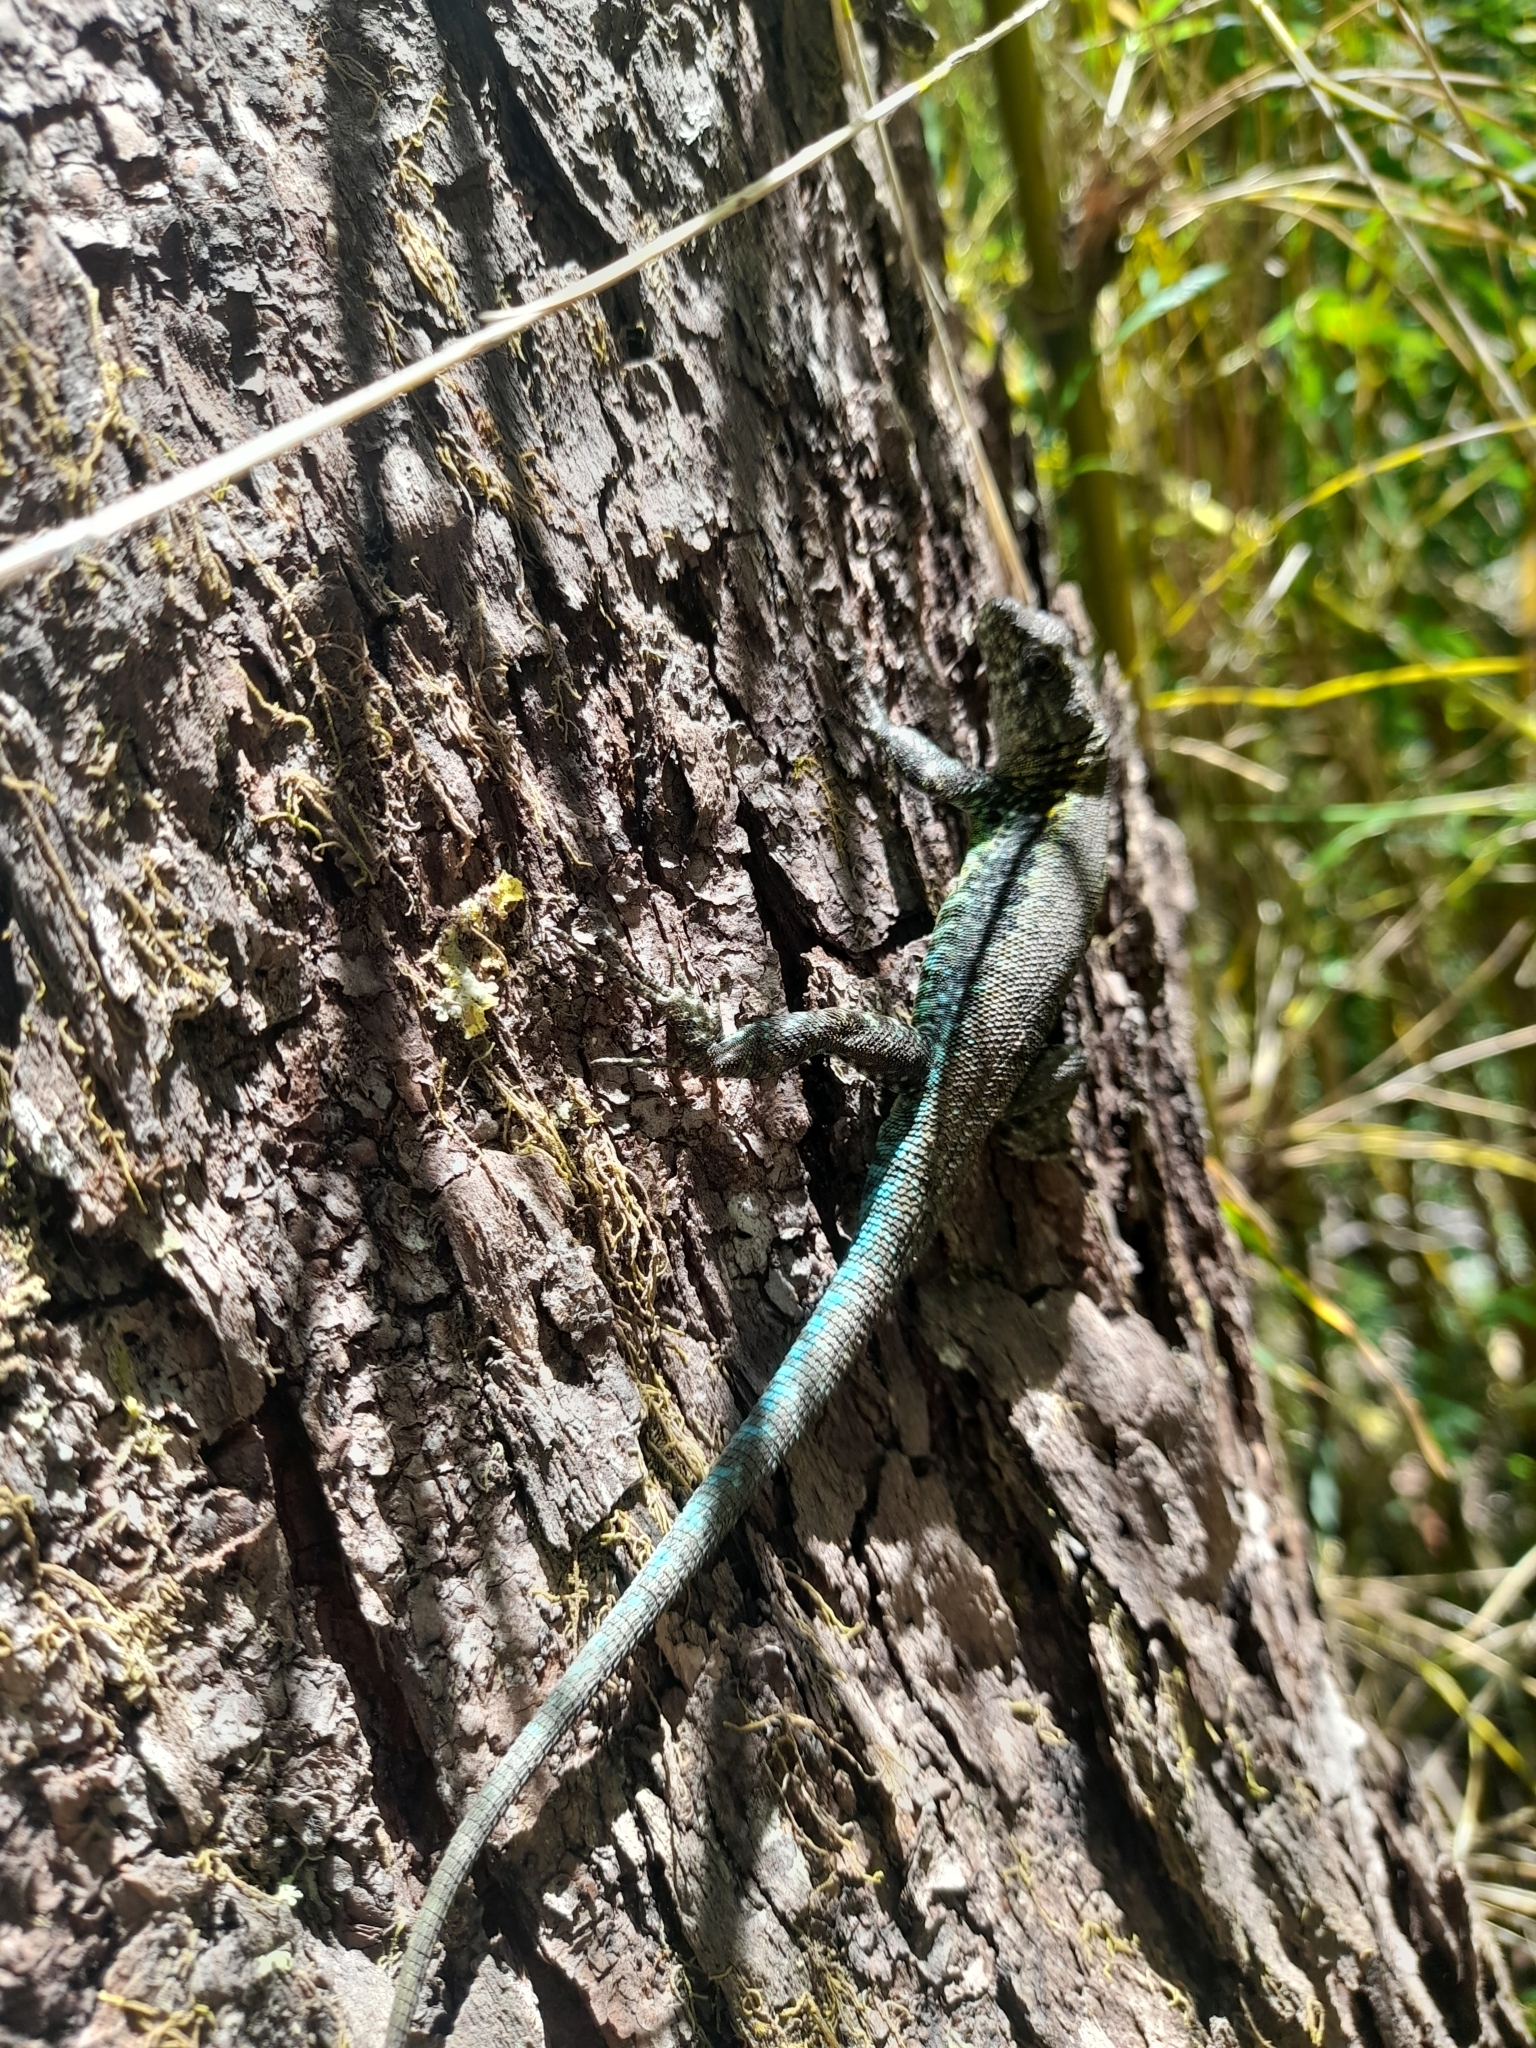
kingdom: Animalia
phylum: Chordata
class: Squamata
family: Liolaemidae
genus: Liolaemus
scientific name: Liolaemus pictus
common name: Painted tree iguana
